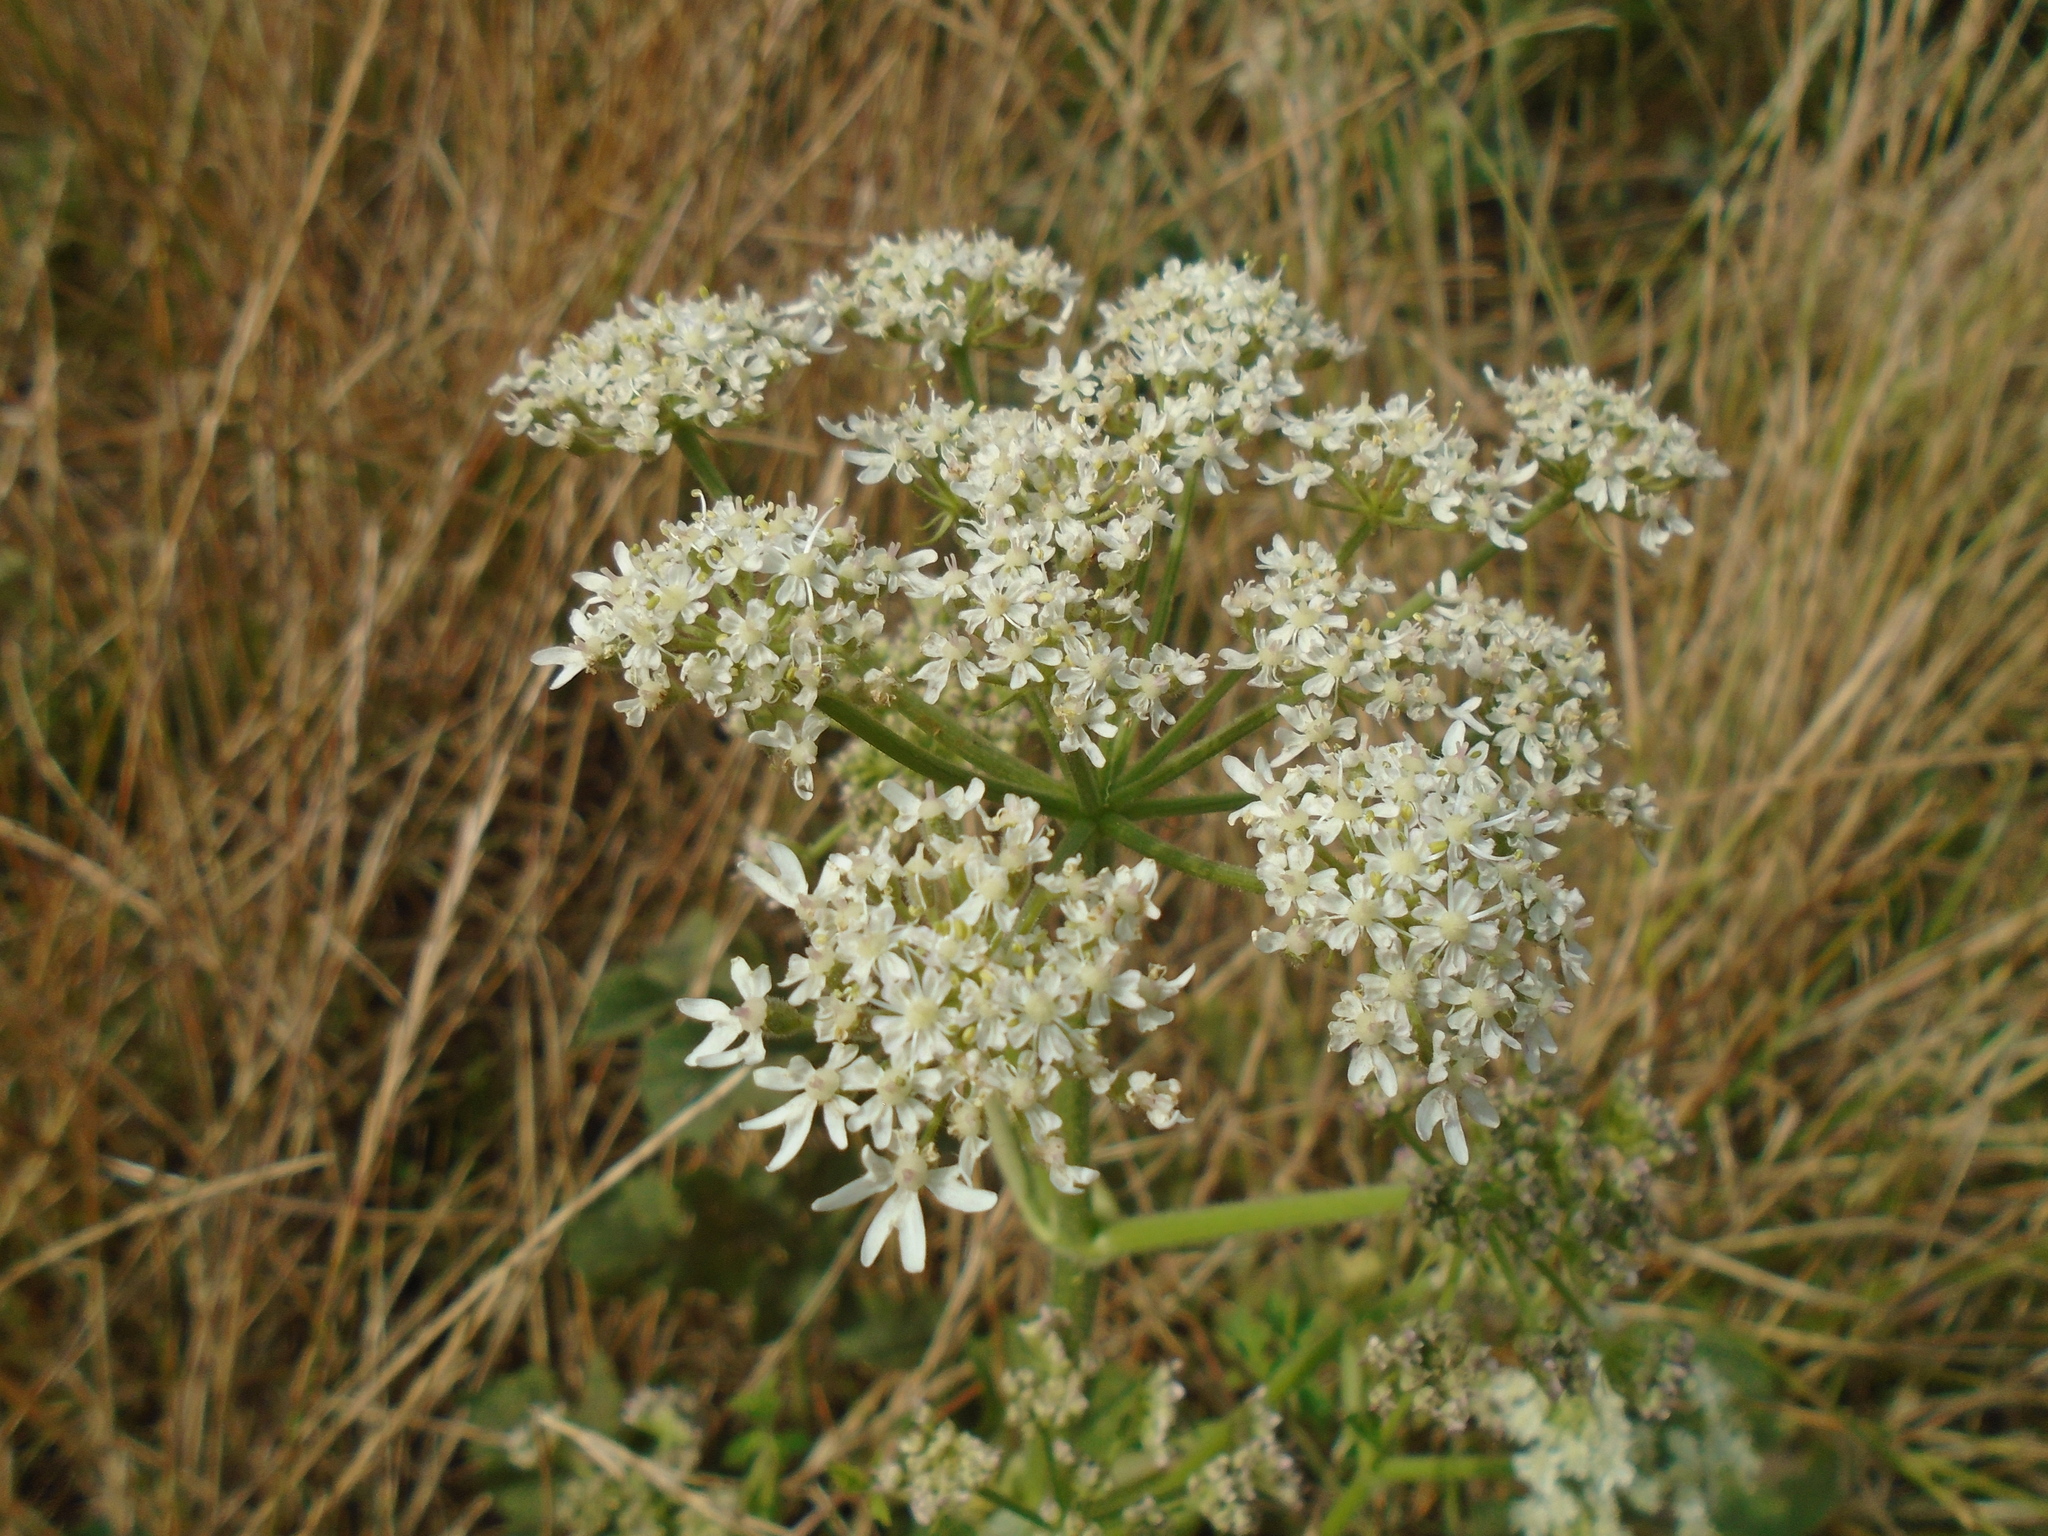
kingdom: Plantae
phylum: Tracheophyta
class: Magnoliopsida
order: Apiales
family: Apiaceae
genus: Heracleum
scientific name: Heracleum sphondylium
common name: Hogweed
